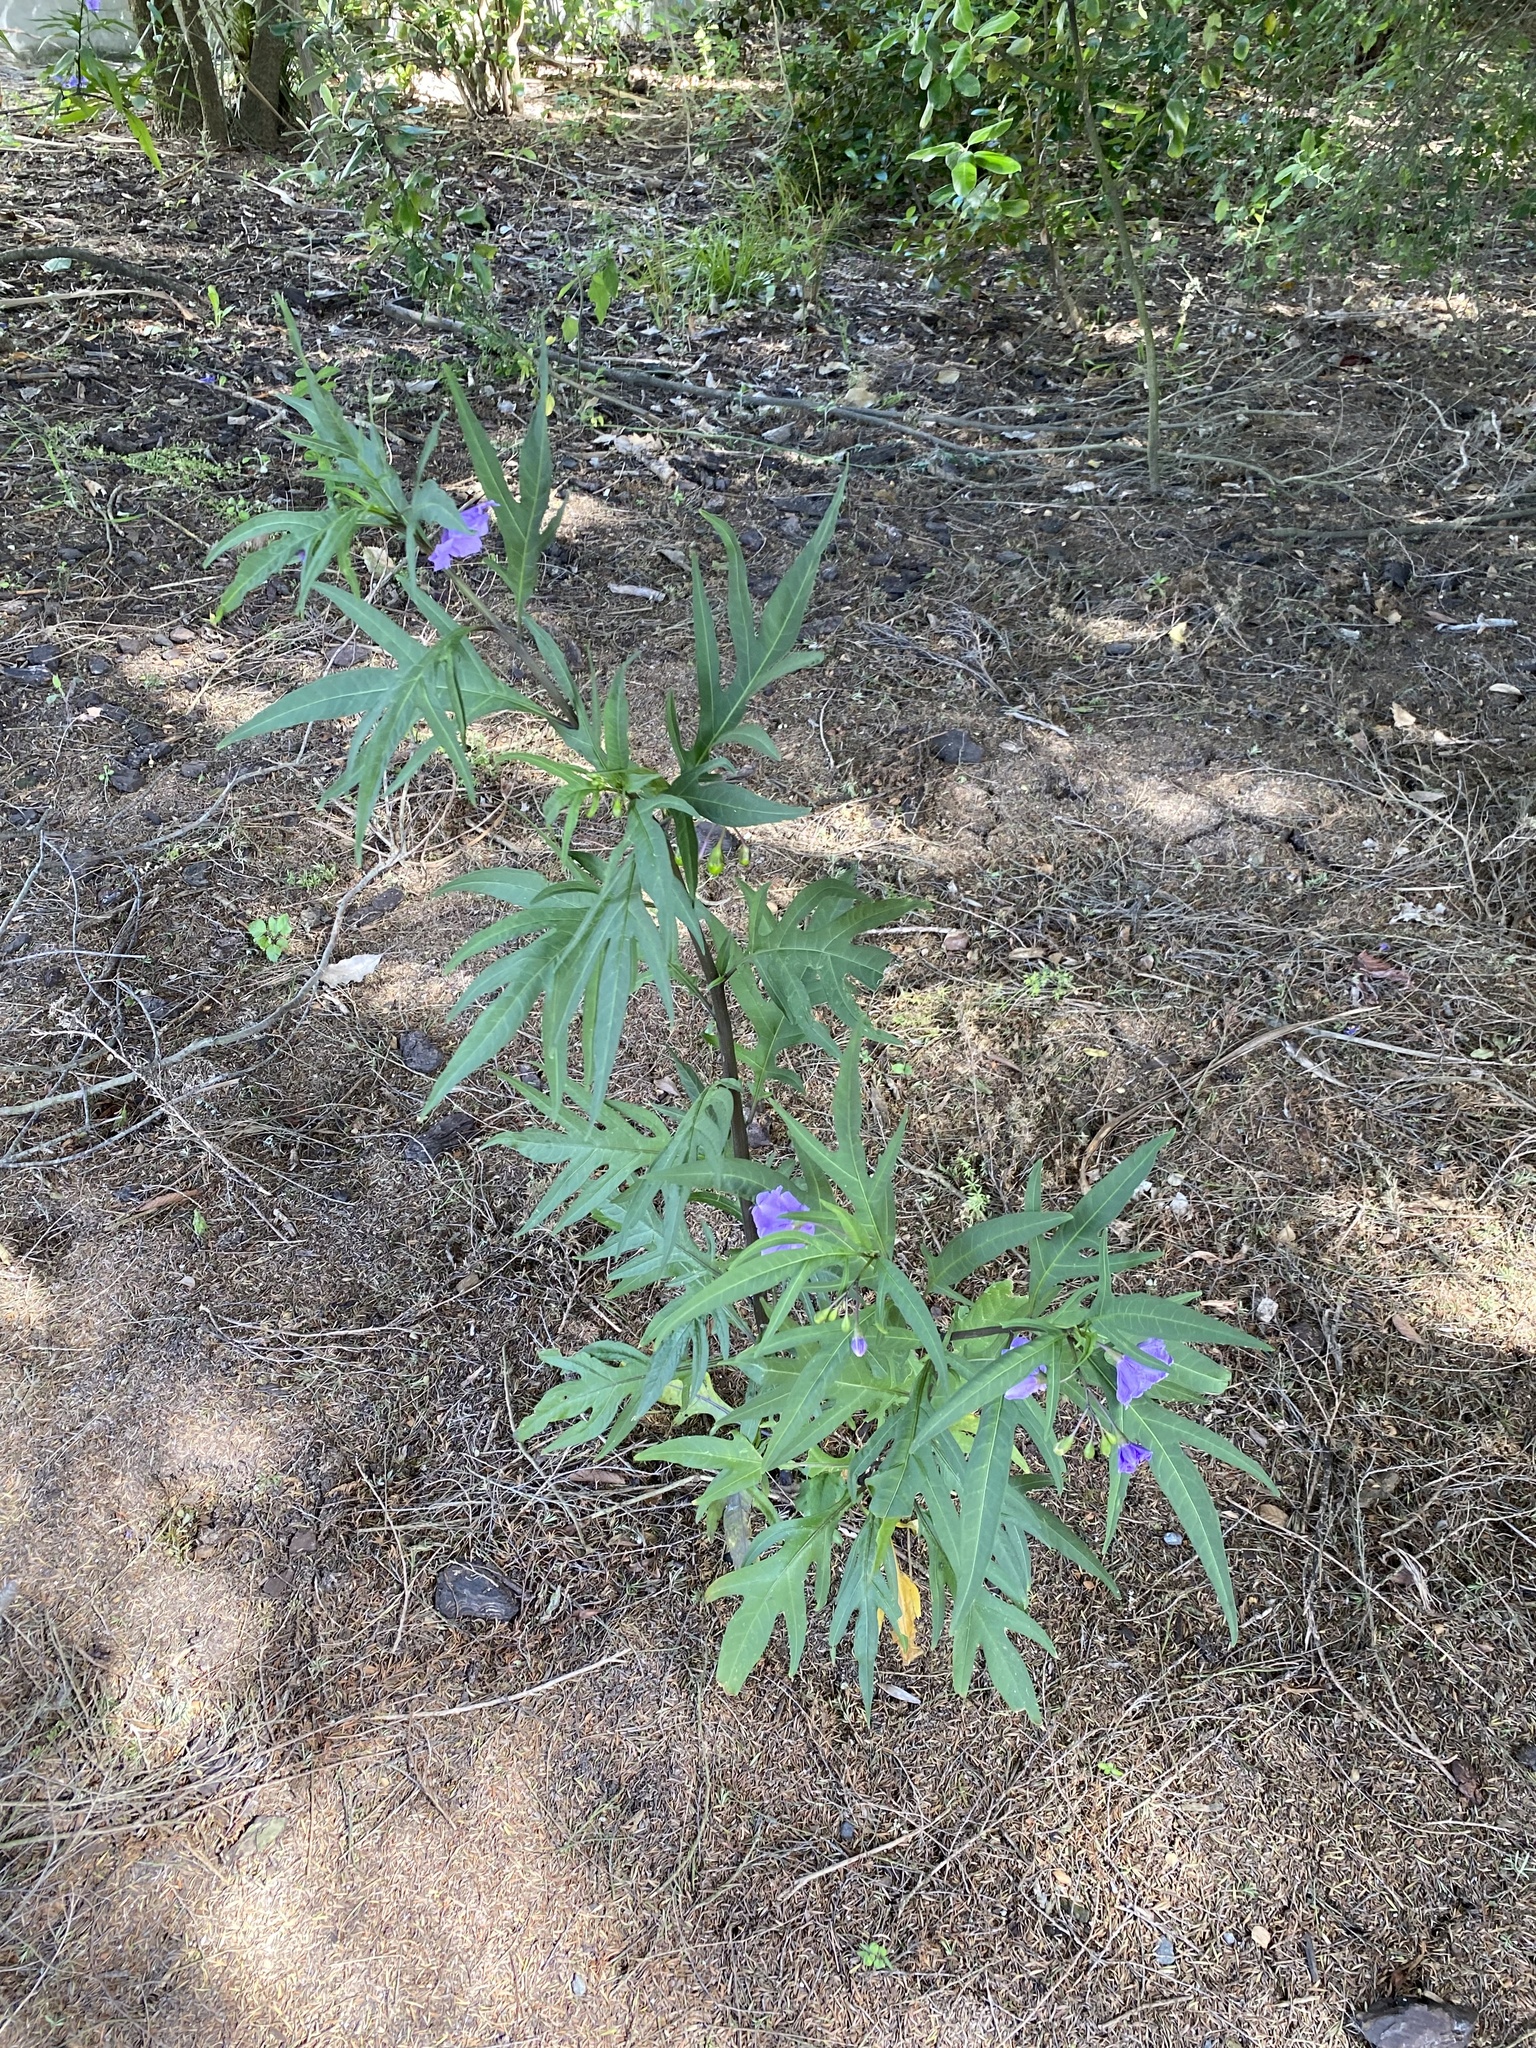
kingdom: Plantae
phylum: Tracheophyta
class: Magnoliopsida
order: Solanales
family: Solanaceae
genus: Solanum
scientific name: Solanum laciniatum
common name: Kangaroo-apple
